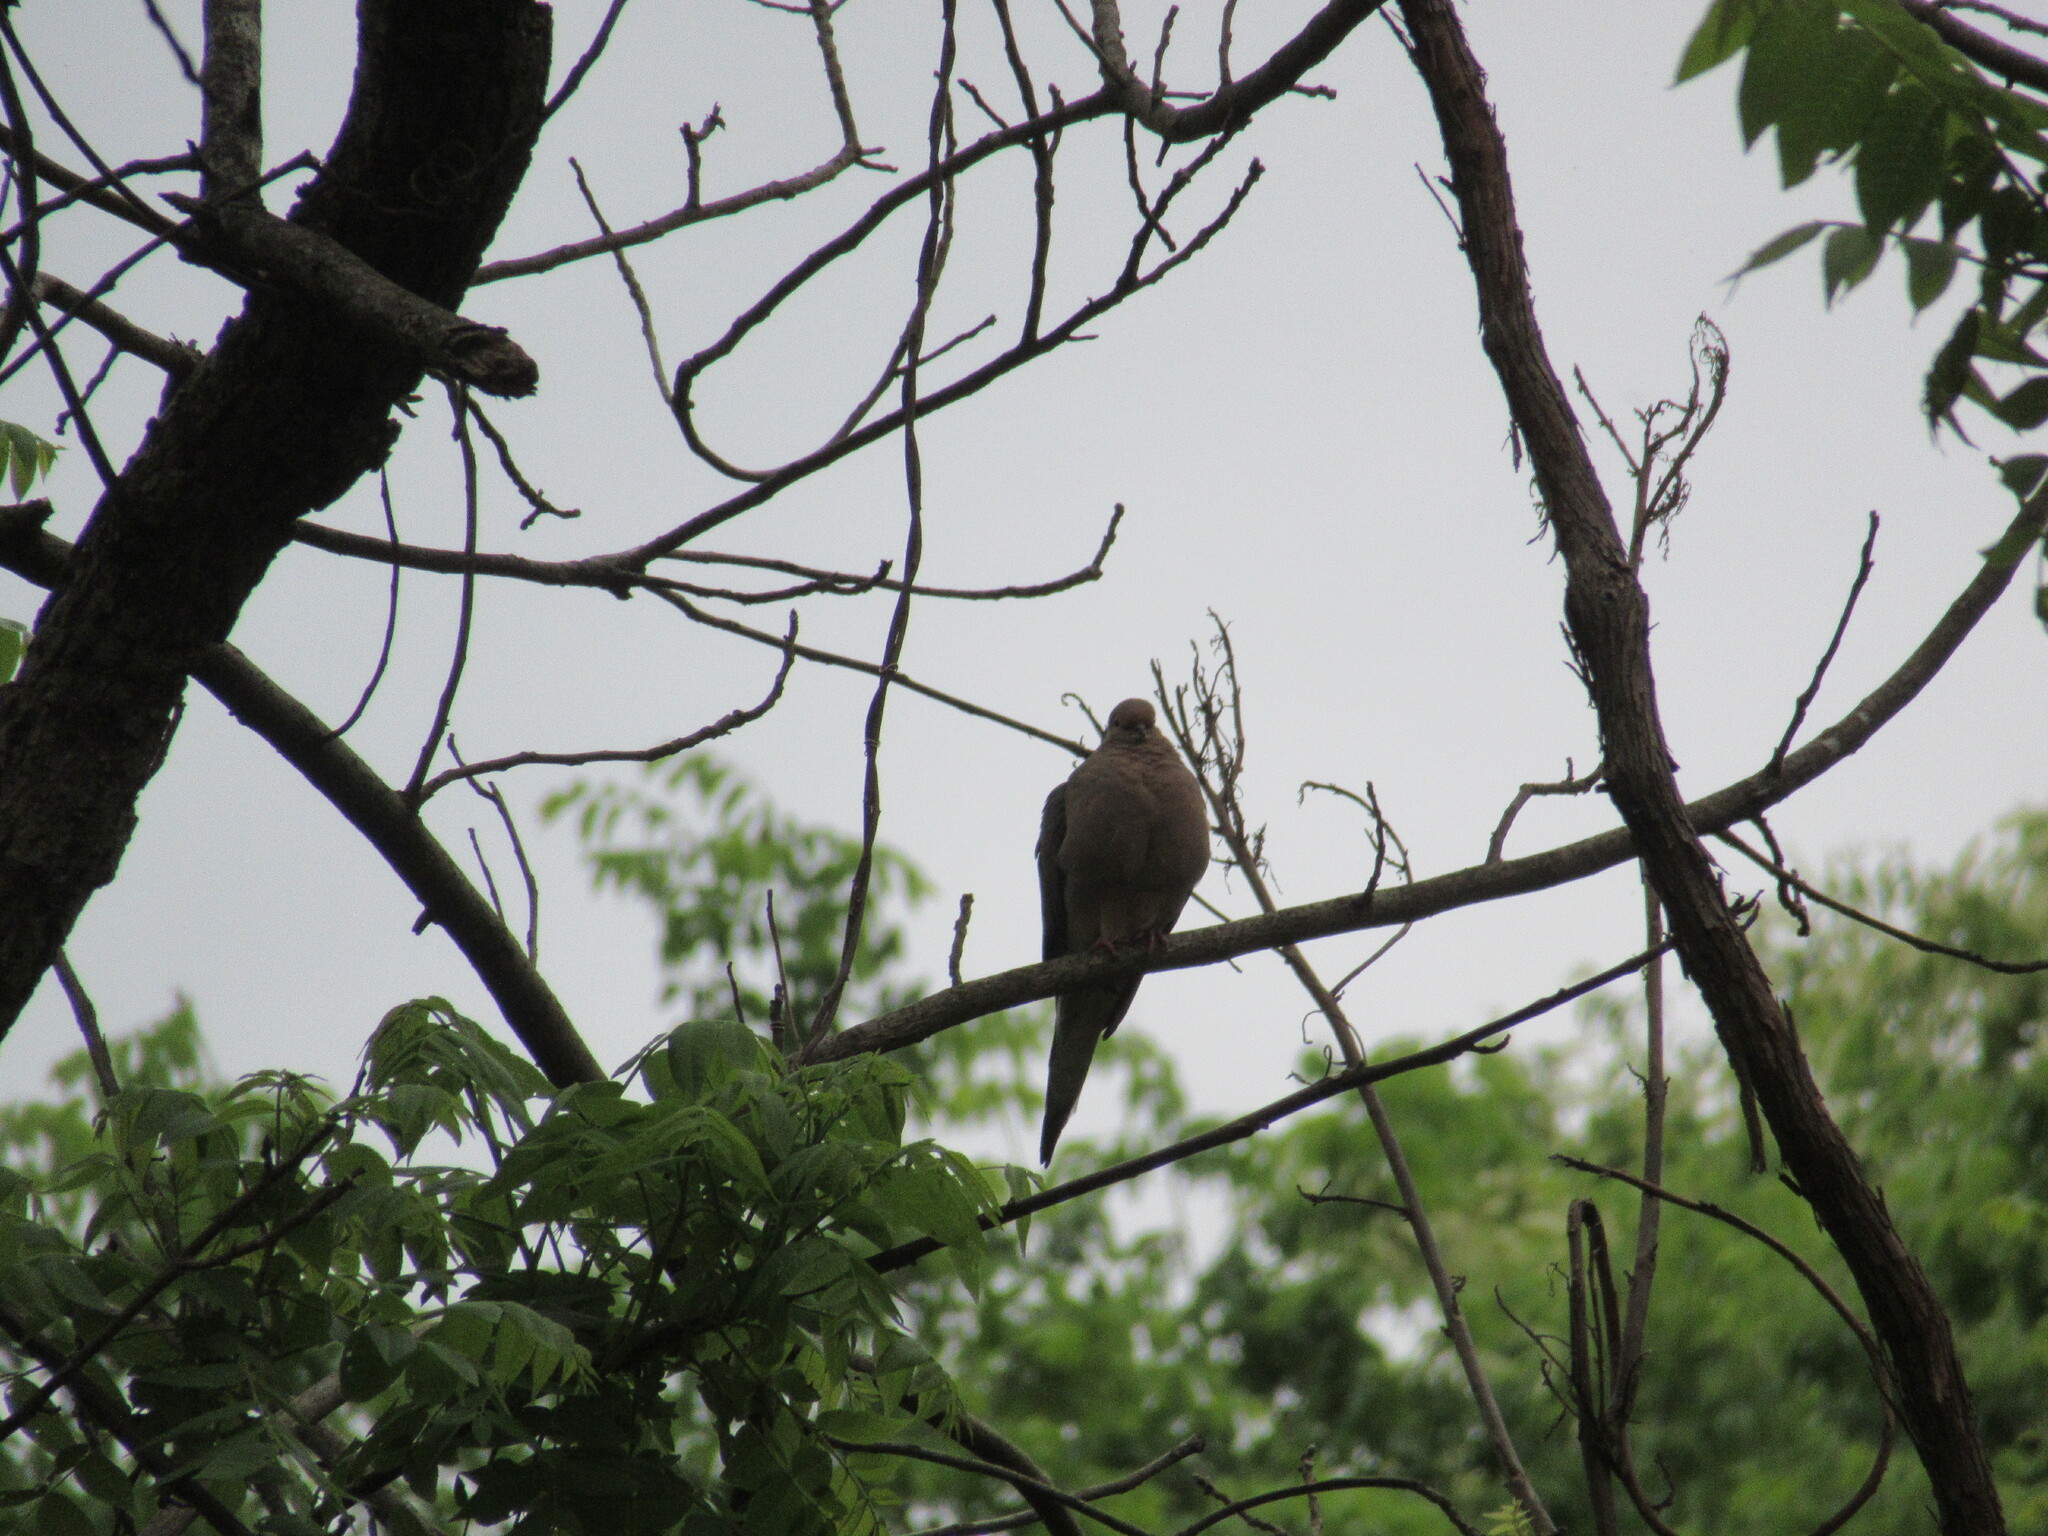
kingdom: Animalia
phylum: Chordata
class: Aves
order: Columbiformes
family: Columbidae
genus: Zenaida
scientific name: Zenaida macroura
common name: Mourning dove
